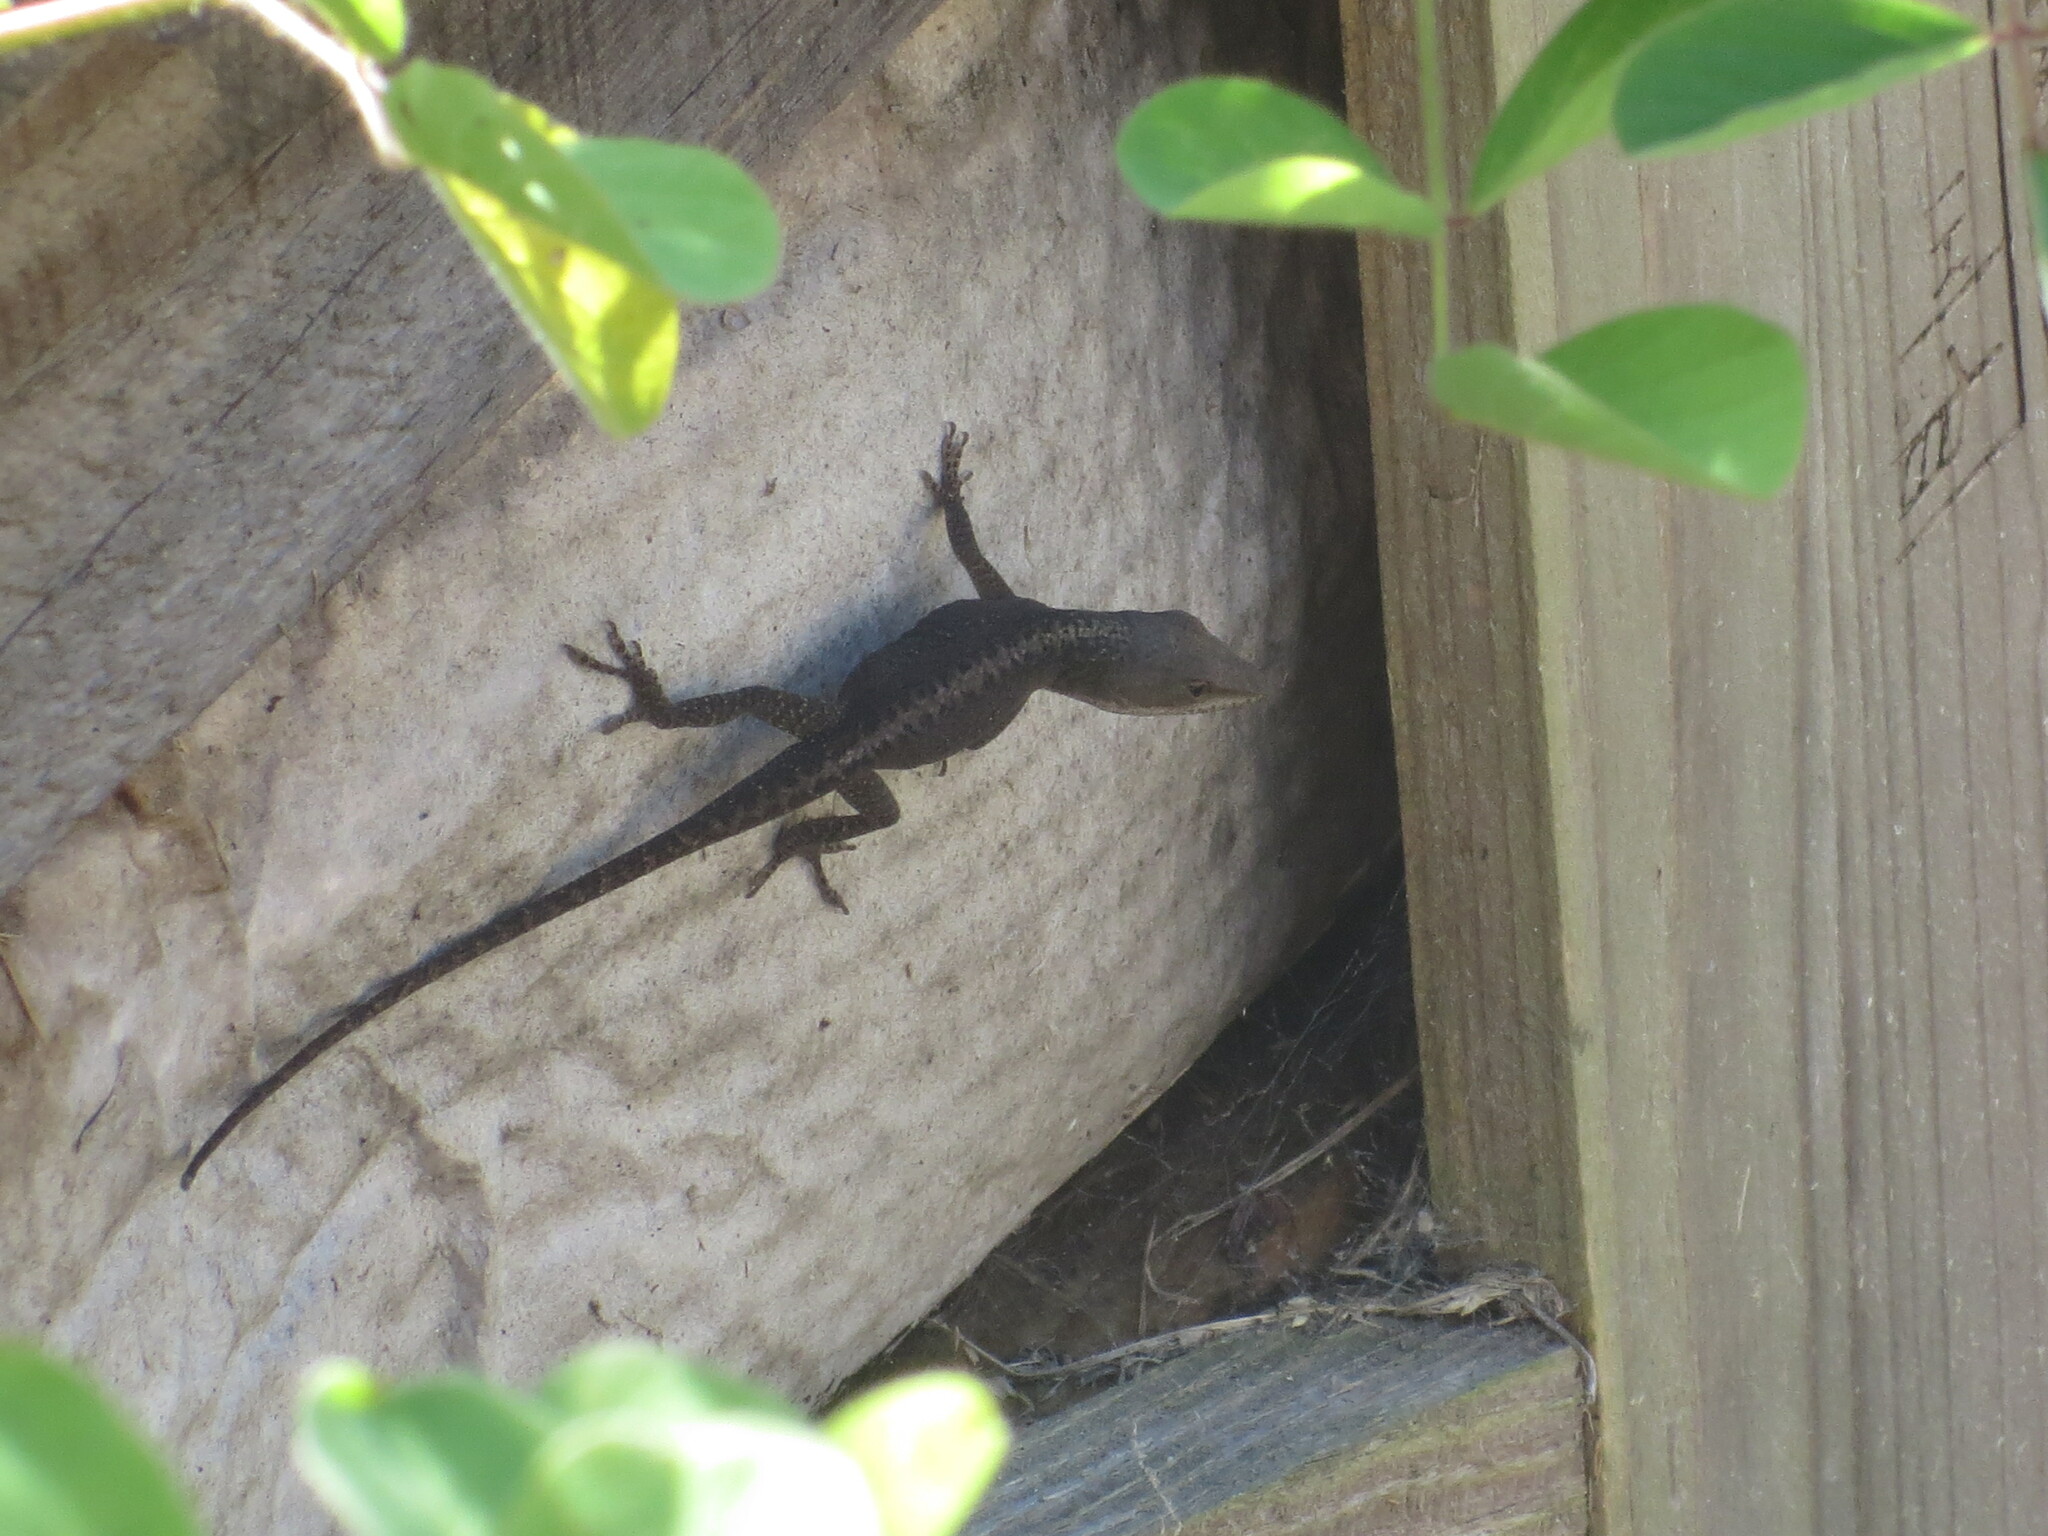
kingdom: Animalia
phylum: Chordata
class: Squamata
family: Dactyloidae
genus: Anolis
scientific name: Anolis carolinensis
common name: Green anole
